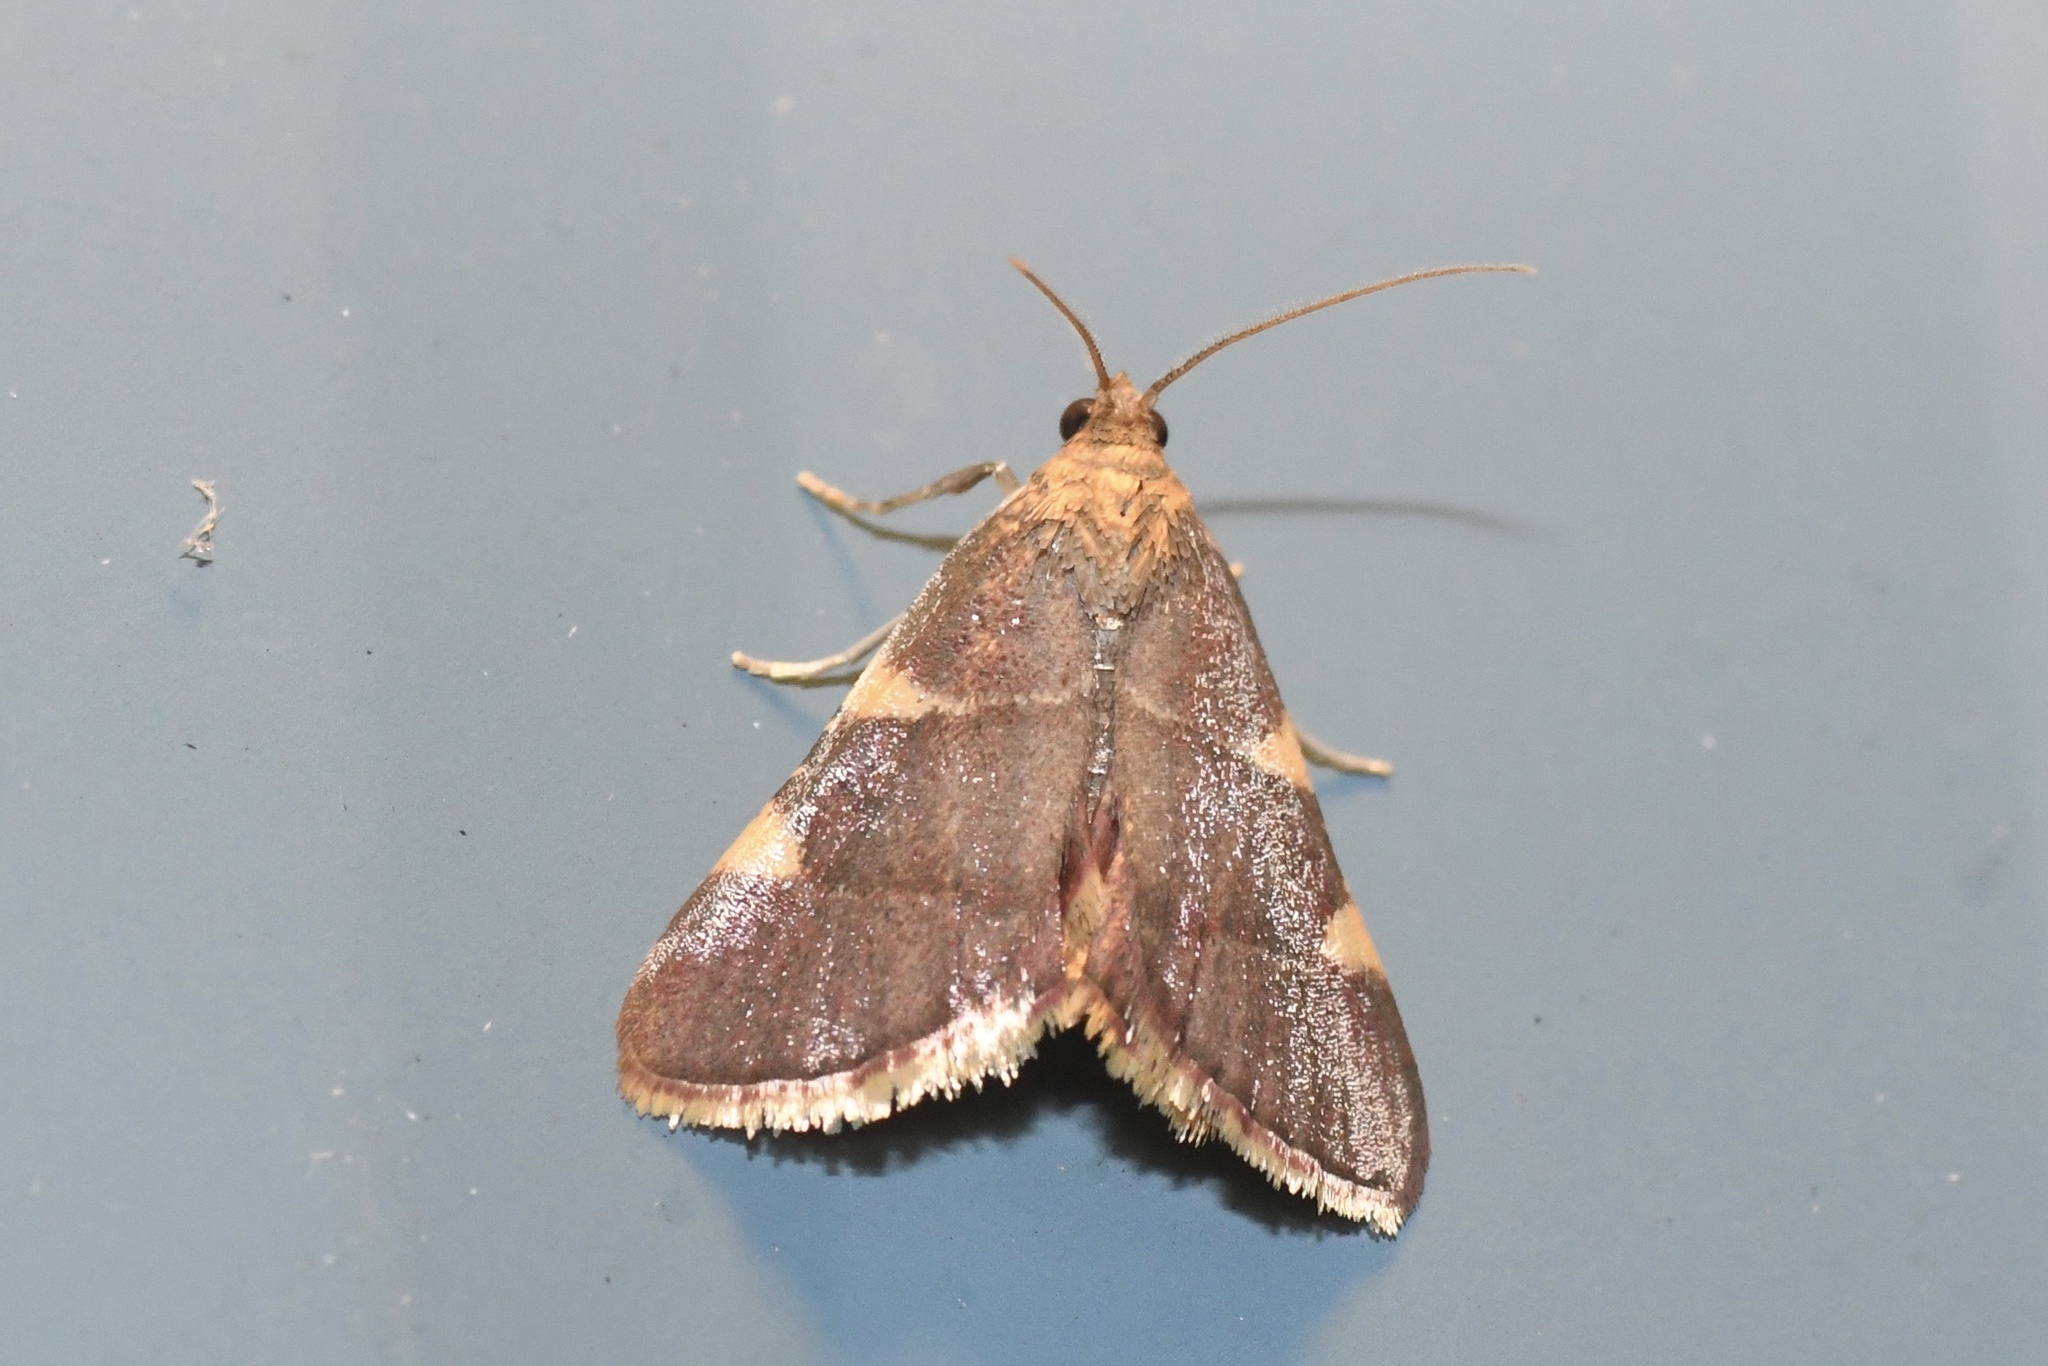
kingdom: Animalia
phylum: Arthropoda
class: Insecta
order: Lepidoptera
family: Pyralidae
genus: Hypsopygia
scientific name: Hypsopygia olinalis
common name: Yellow-fringed dolichomia moth
